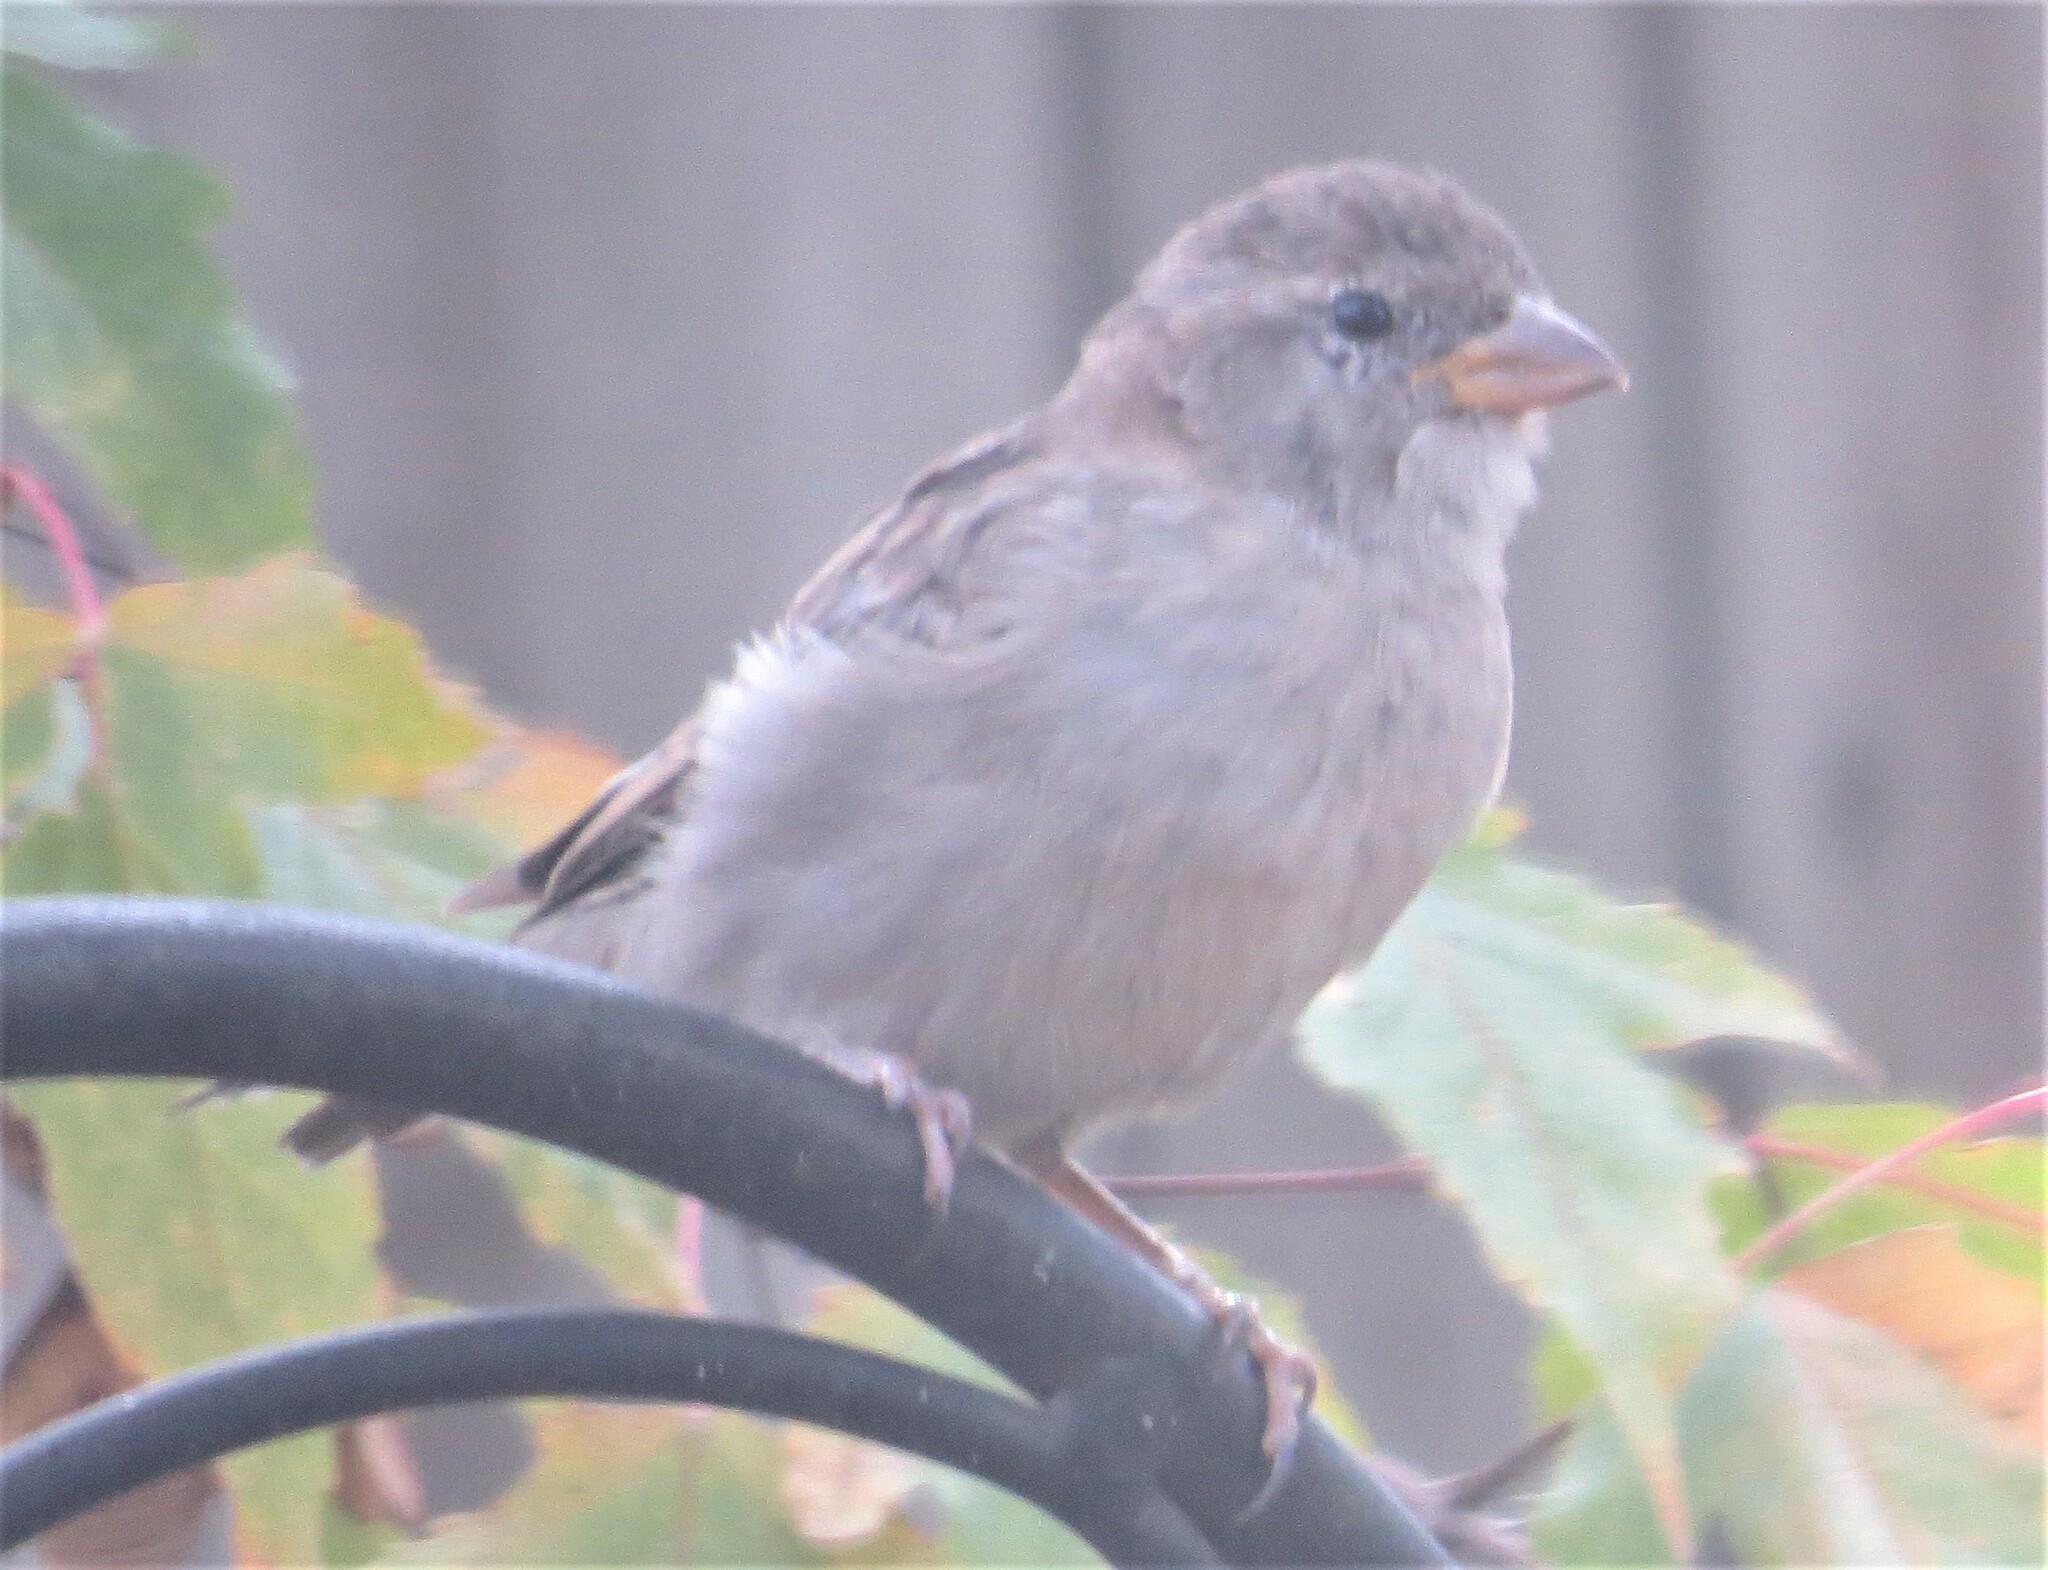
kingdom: Animalia
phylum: Chordata
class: Aves
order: Passeriformes
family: Passeridae
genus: Passer
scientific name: Passer domesticus
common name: House sparrow
